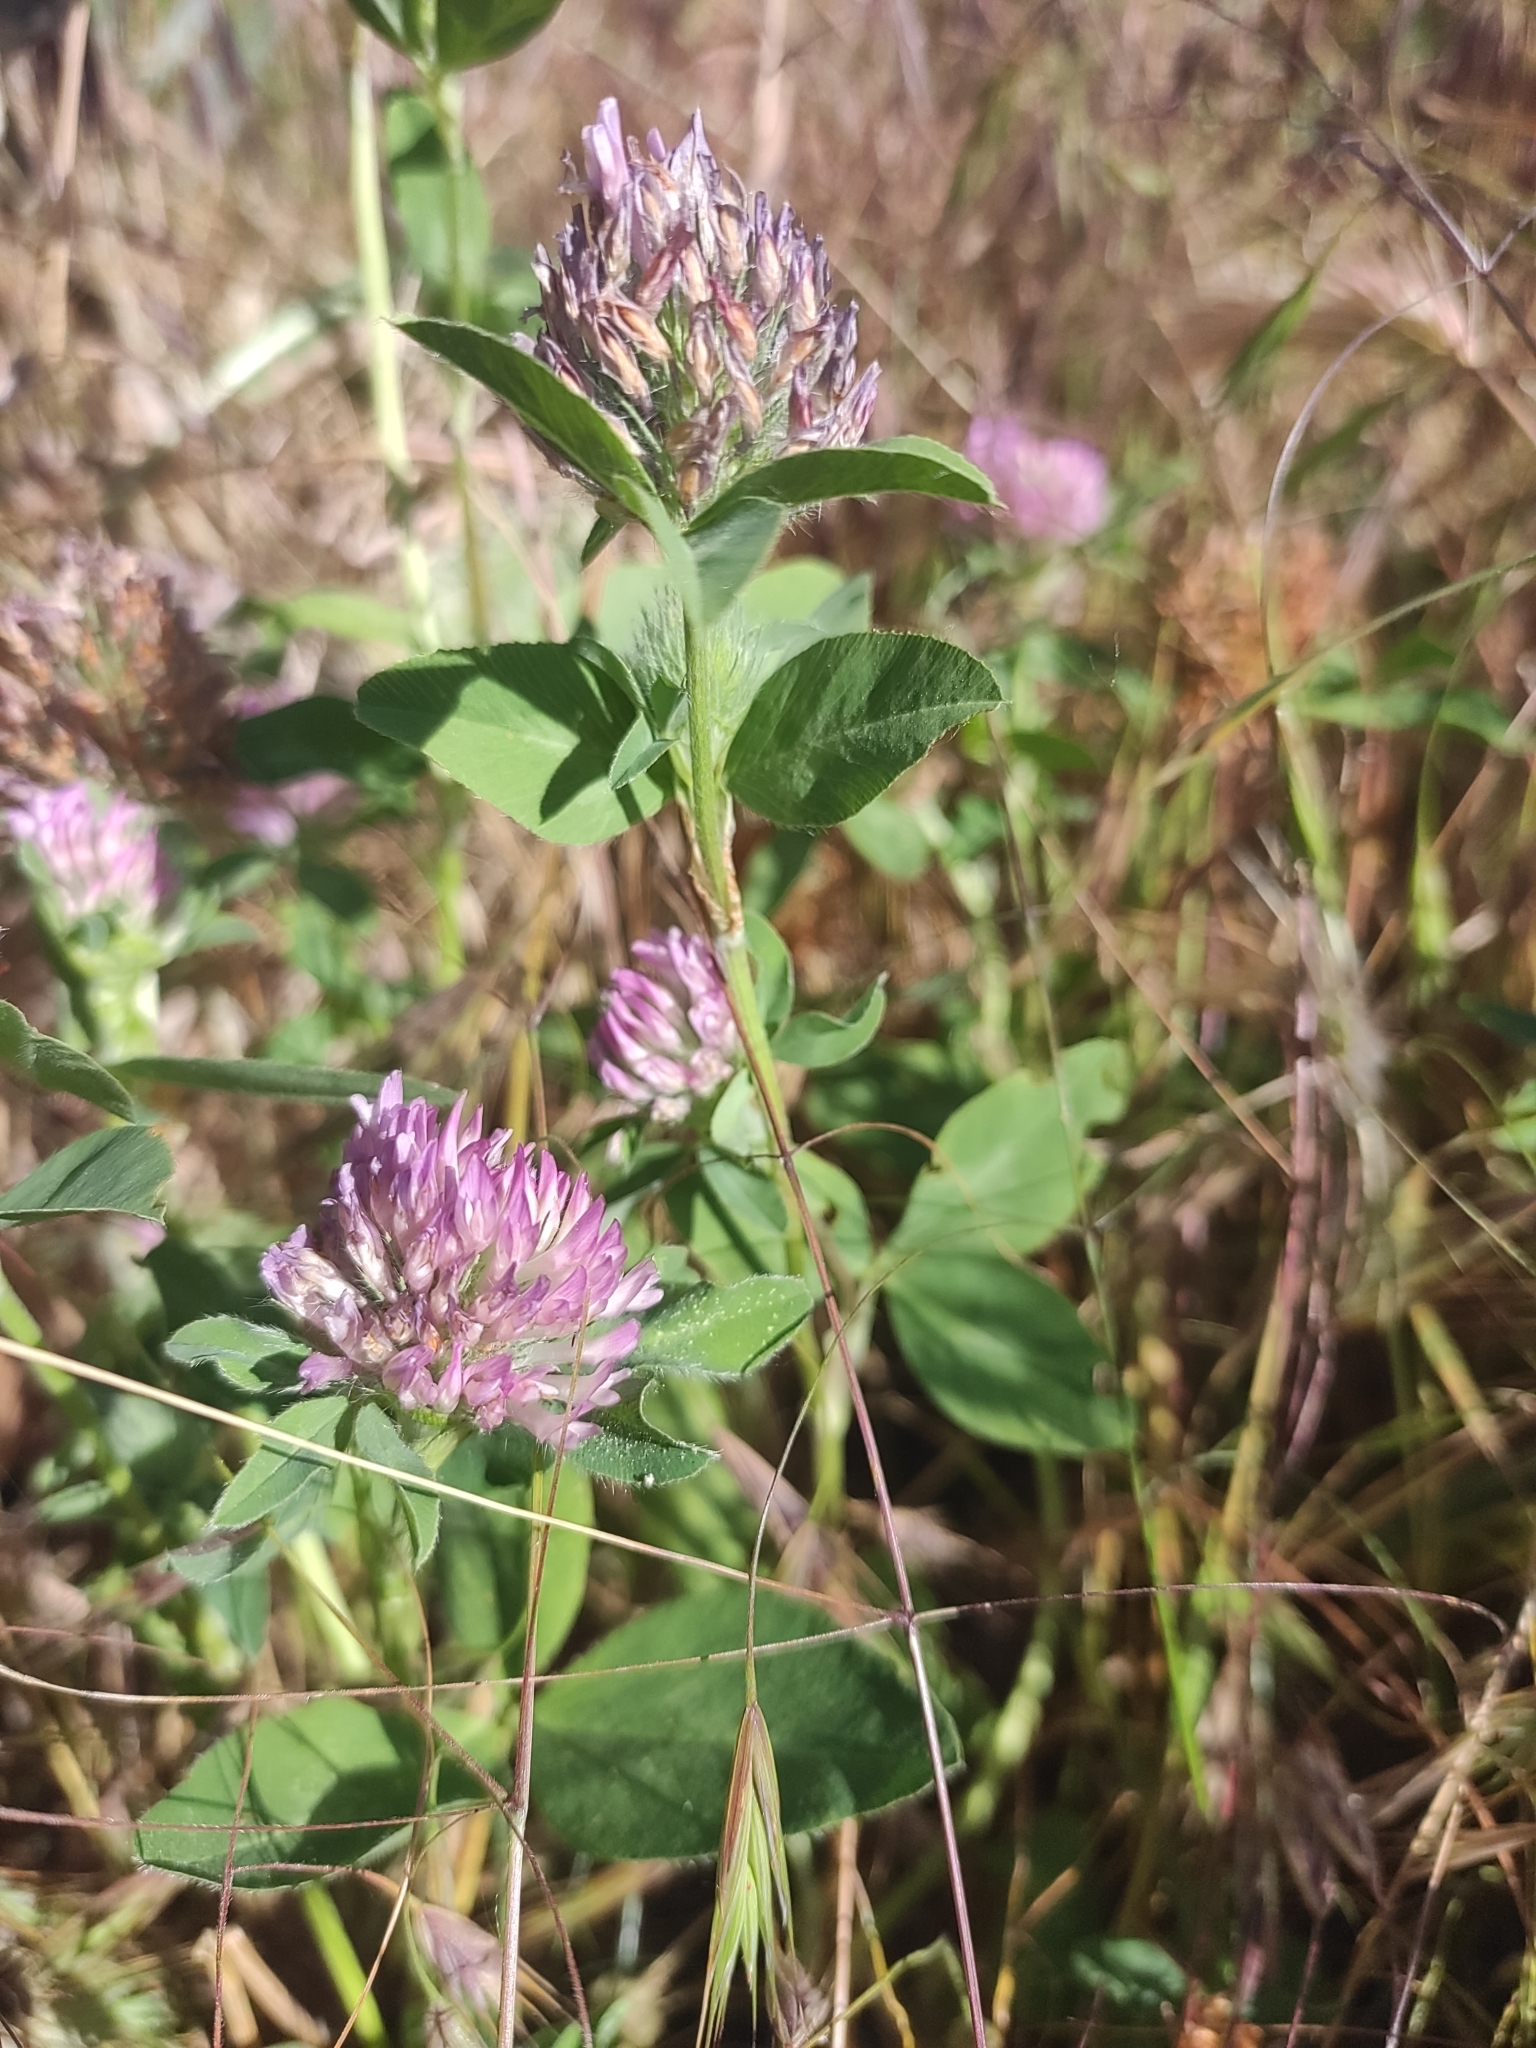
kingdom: Plantae
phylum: Tracheophyta
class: Magnoliopsida
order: Fabales
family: Fabaceae
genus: Trifolium
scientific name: Trifolium pratense
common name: Red clover
